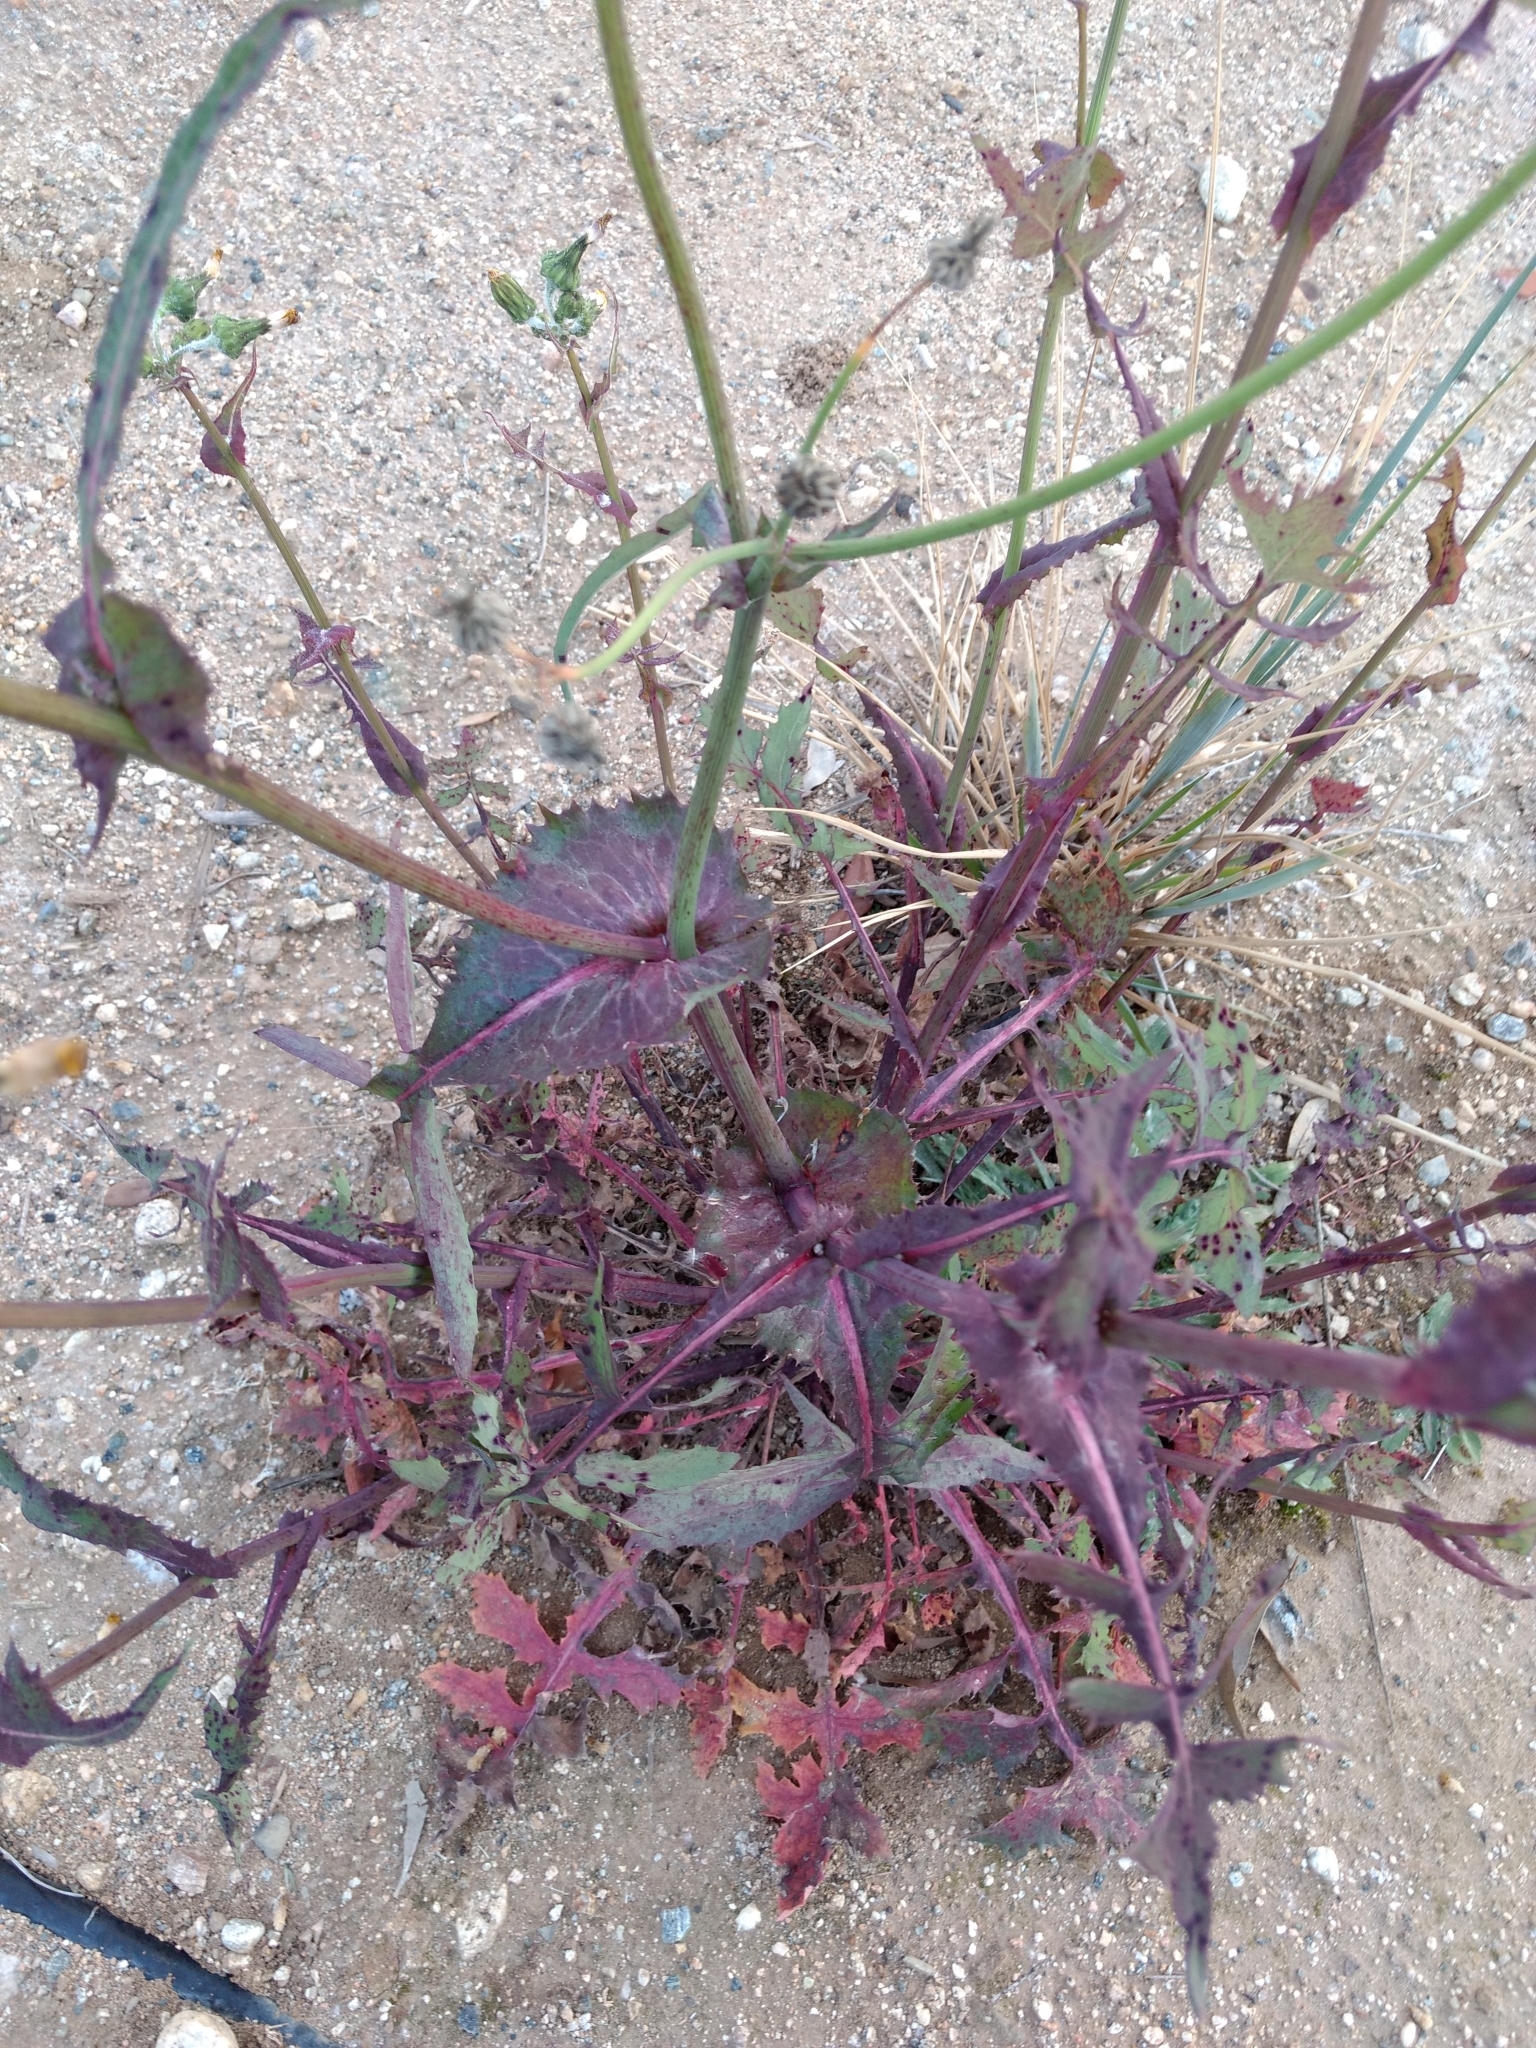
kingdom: Plantae
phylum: Tracheophyta
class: Magnoliopsida
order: Asterales
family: Asteraceae
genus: Sonchus
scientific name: Sonchus oleraceus
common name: Common sowthistle
